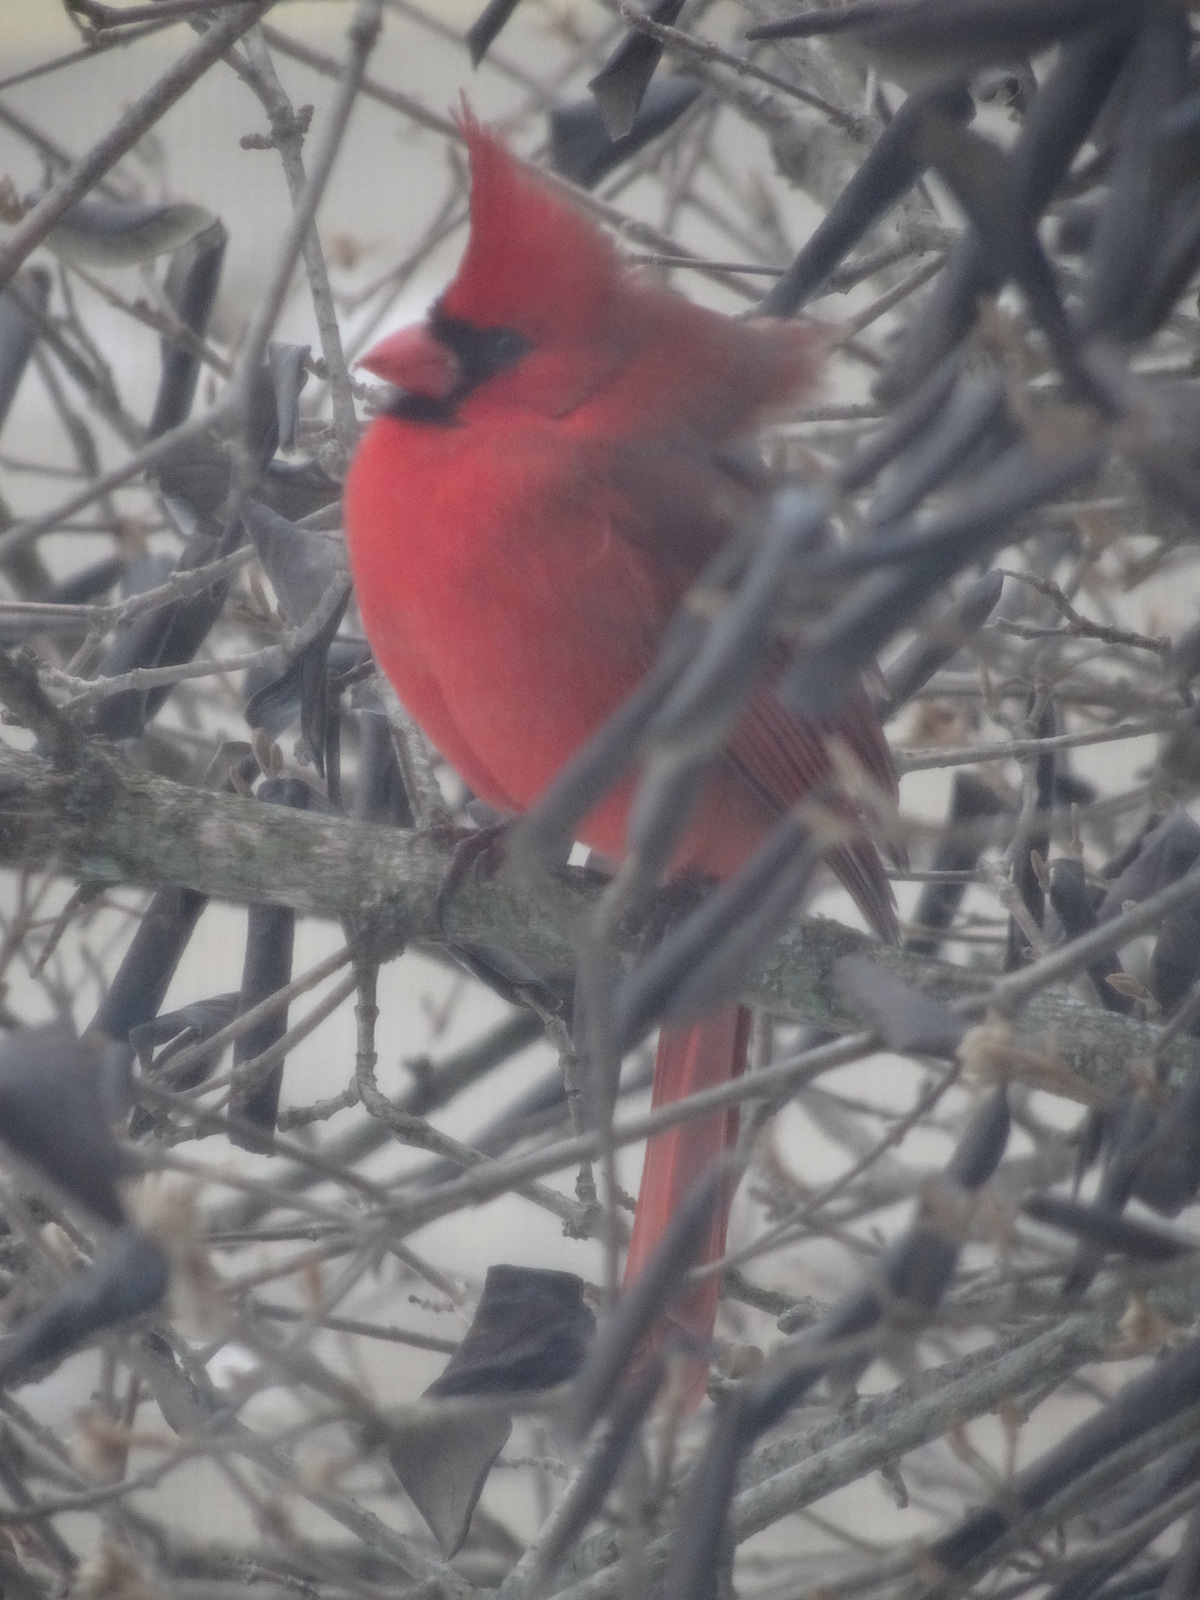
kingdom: Animalia
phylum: Chordata
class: Aves
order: Passeriformes
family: Cardinalidae
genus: Cardinalis
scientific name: Cardinalis cardinalis
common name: Northern cardinal
